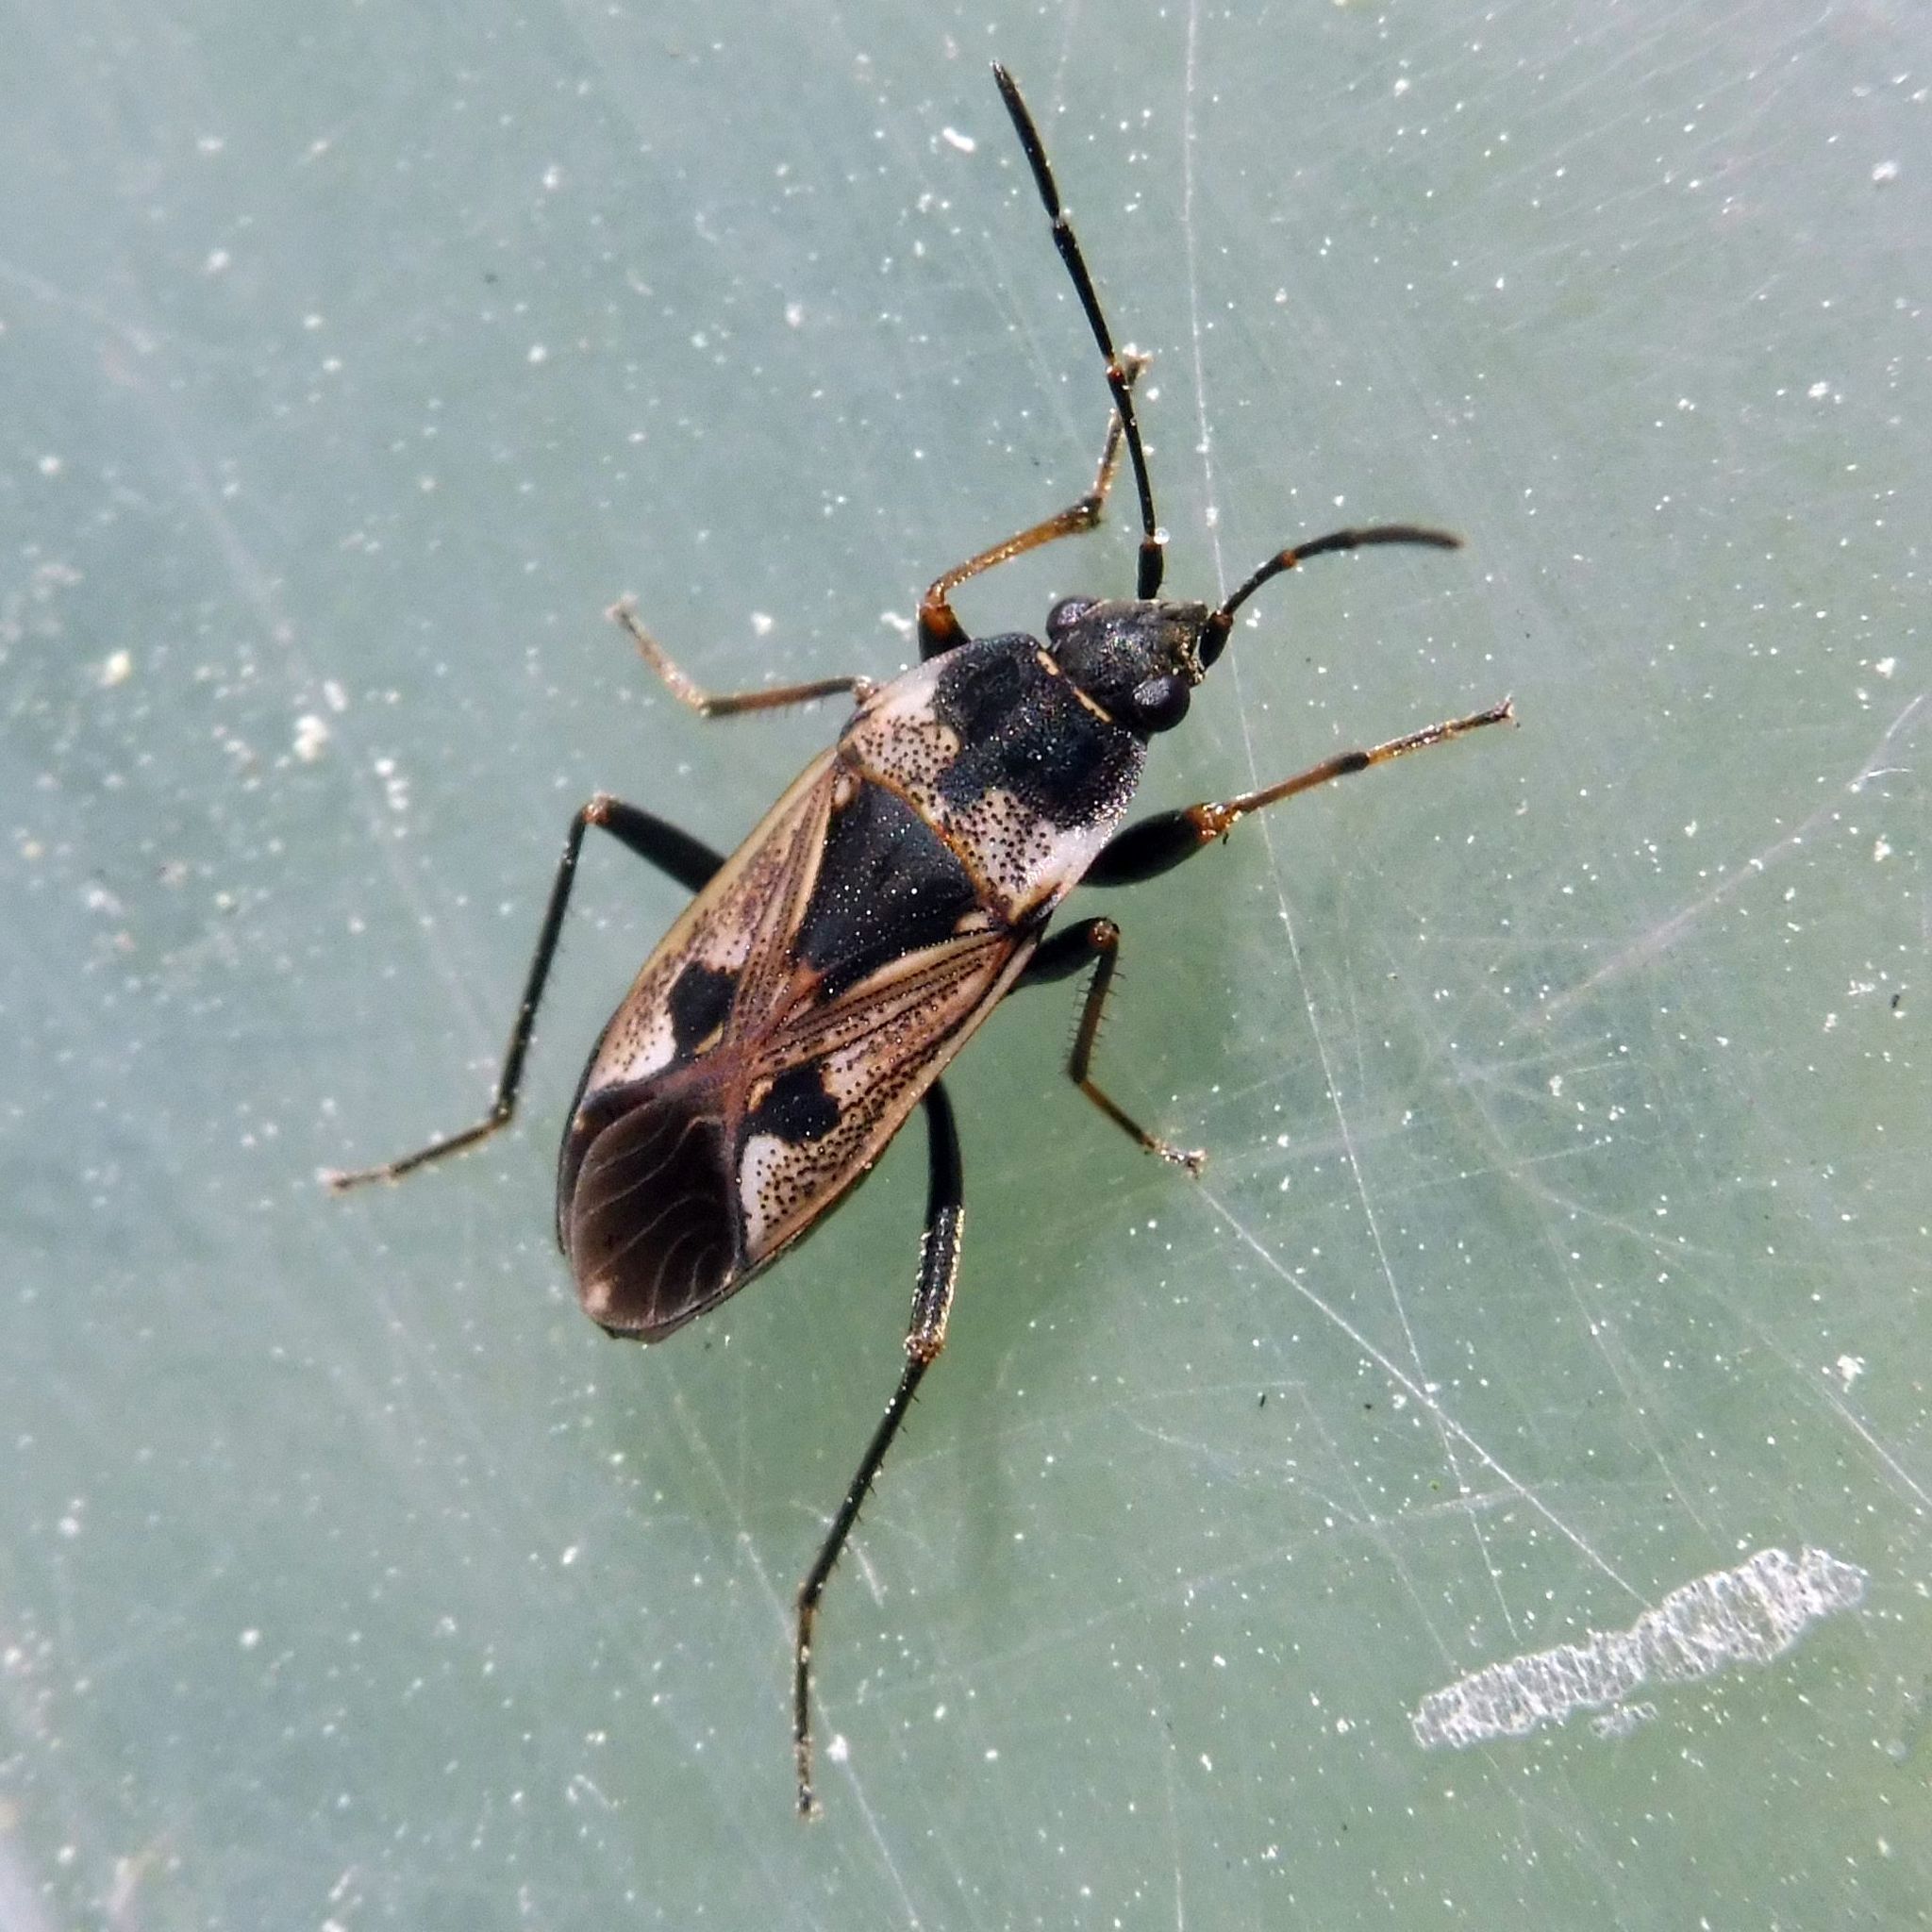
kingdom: Animalia
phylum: Arthropoda
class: Insecta
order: Hemiptera
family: Rhyparochromidae
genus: Rhyparochromus
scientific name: Rhyparochromus vulgaris
